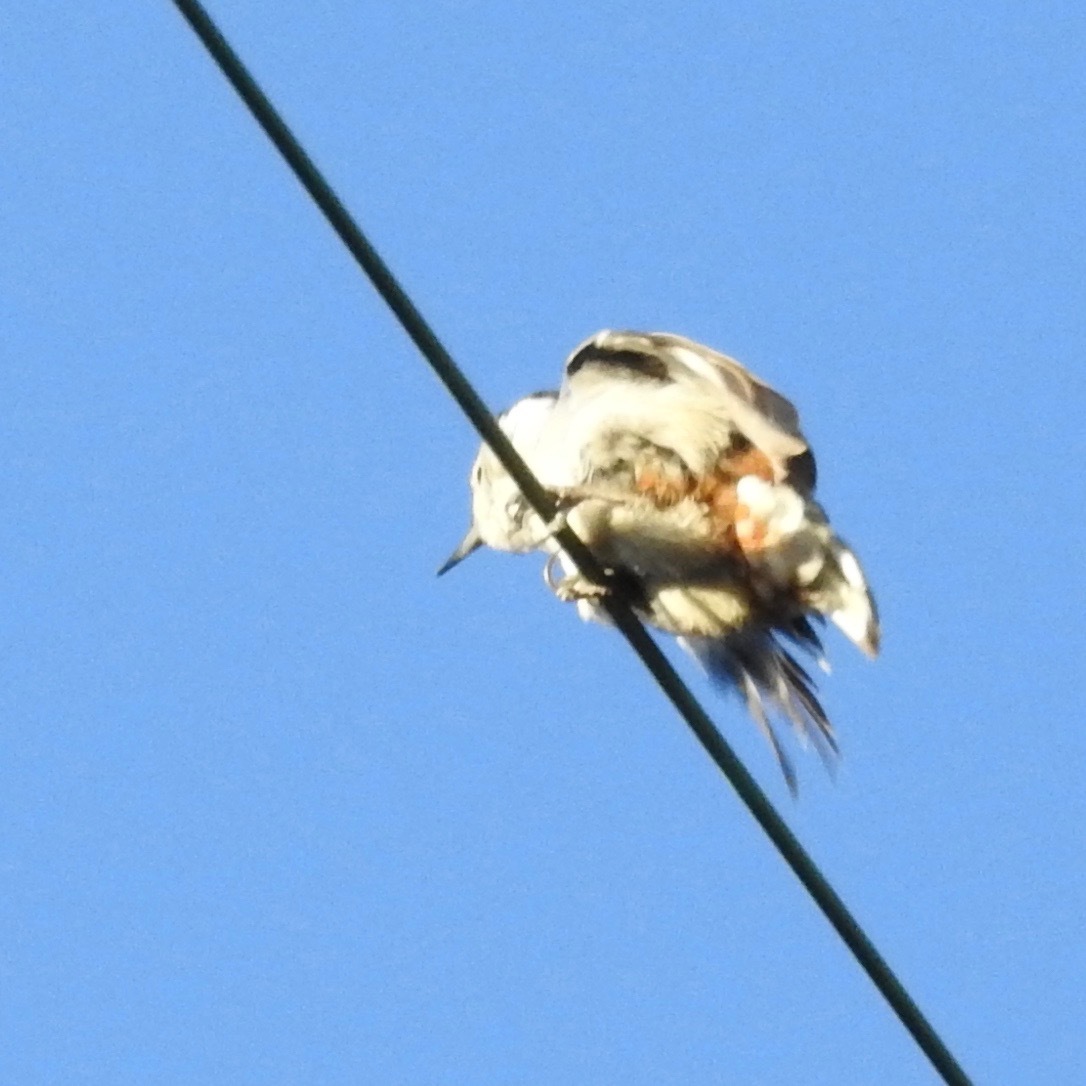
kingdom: Animalia
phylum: Chordata
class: Aves
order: Passeriformes
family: Sittidae
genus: Sitta
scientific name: Sitta carolinensis
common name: White-breasted nuthatch
